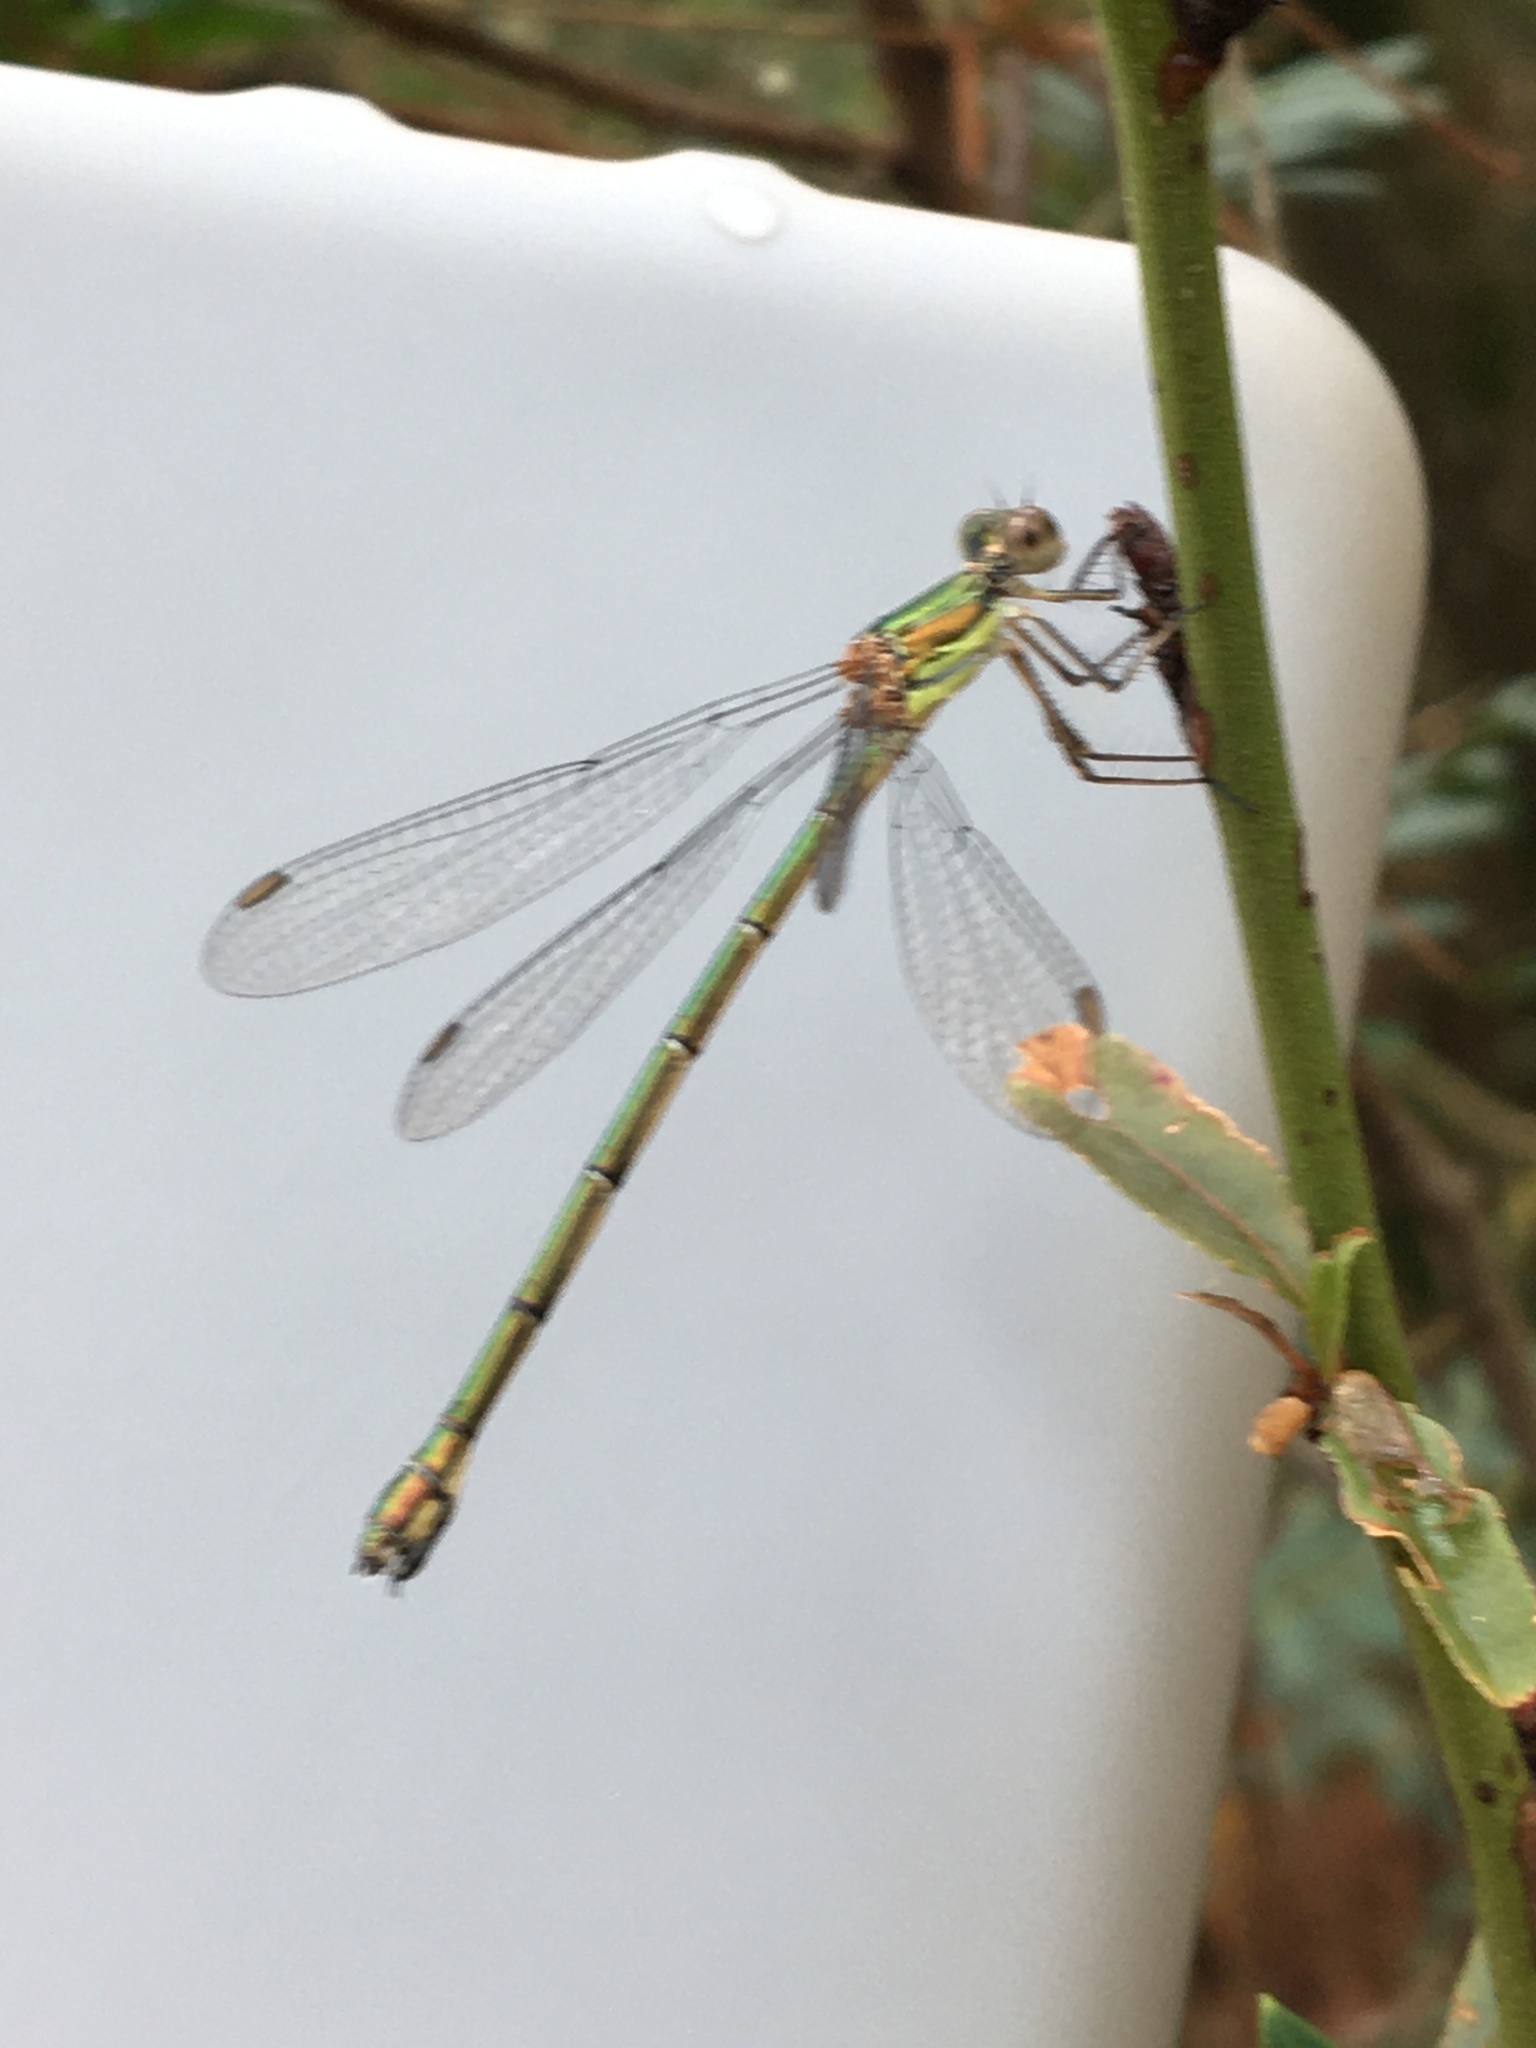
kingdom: Animalia
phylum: Arthropoda
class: Insecta
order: Odonata
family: Lestidae
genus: Chalcolestes
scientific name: Chalcolestes viridis
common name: Green emerald damselfly
